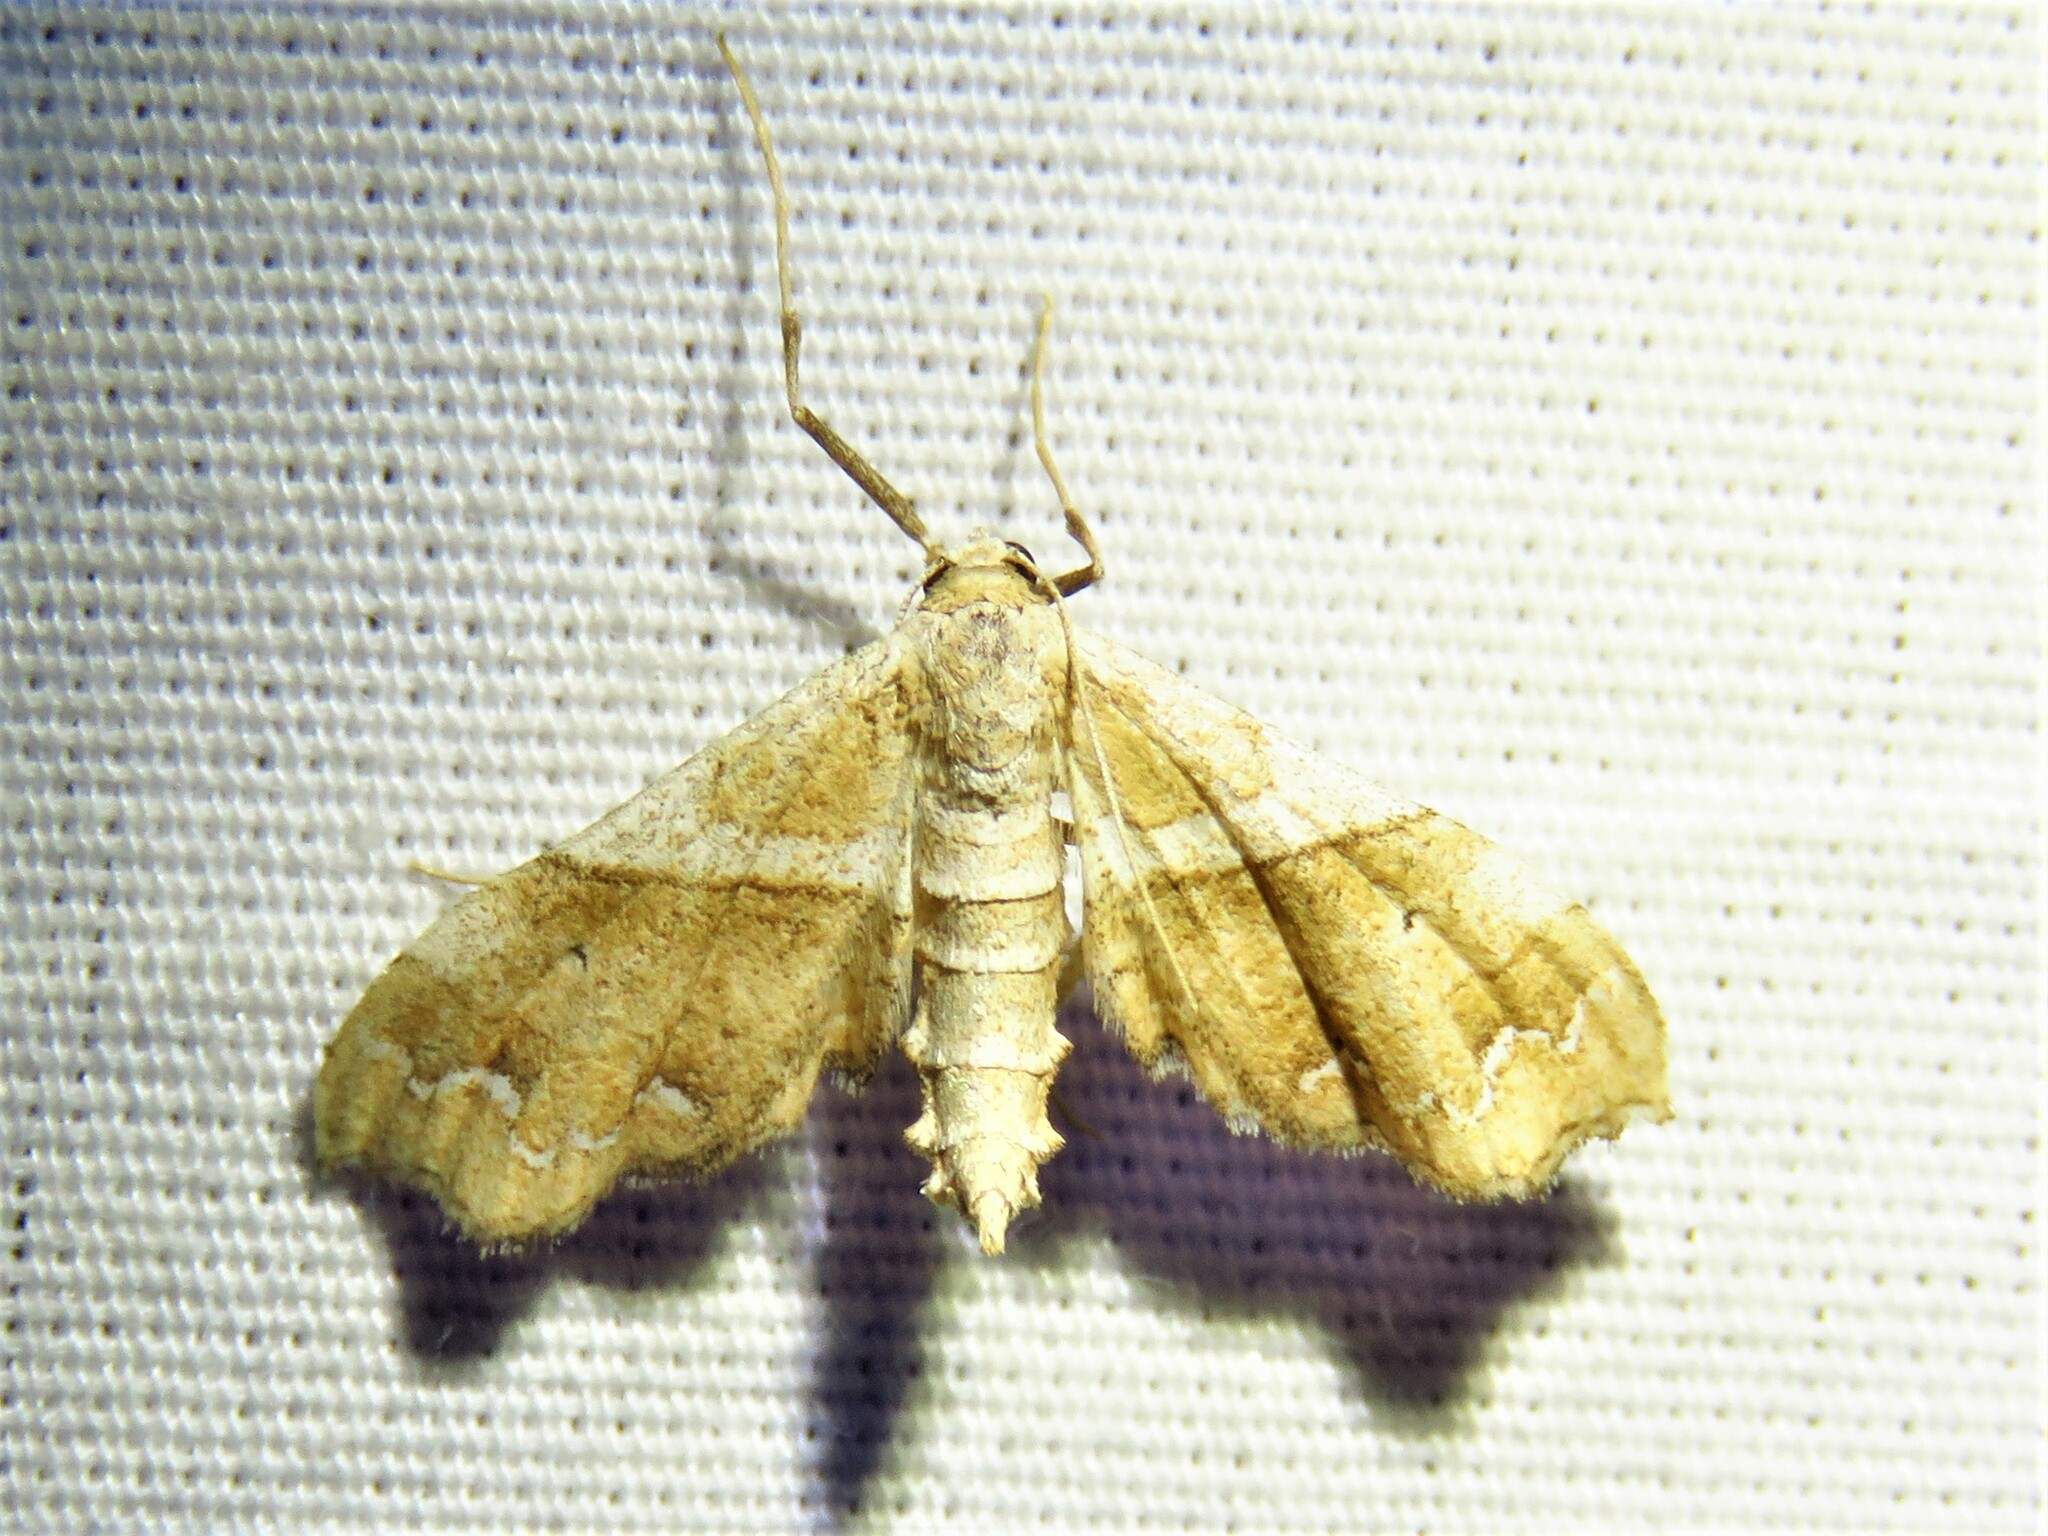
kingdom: Animalia
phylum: Arthropoda
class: Insecta
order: Lepidoptera
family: Geometridae
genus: Odontoptila
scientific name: Odontoptila obrimo
